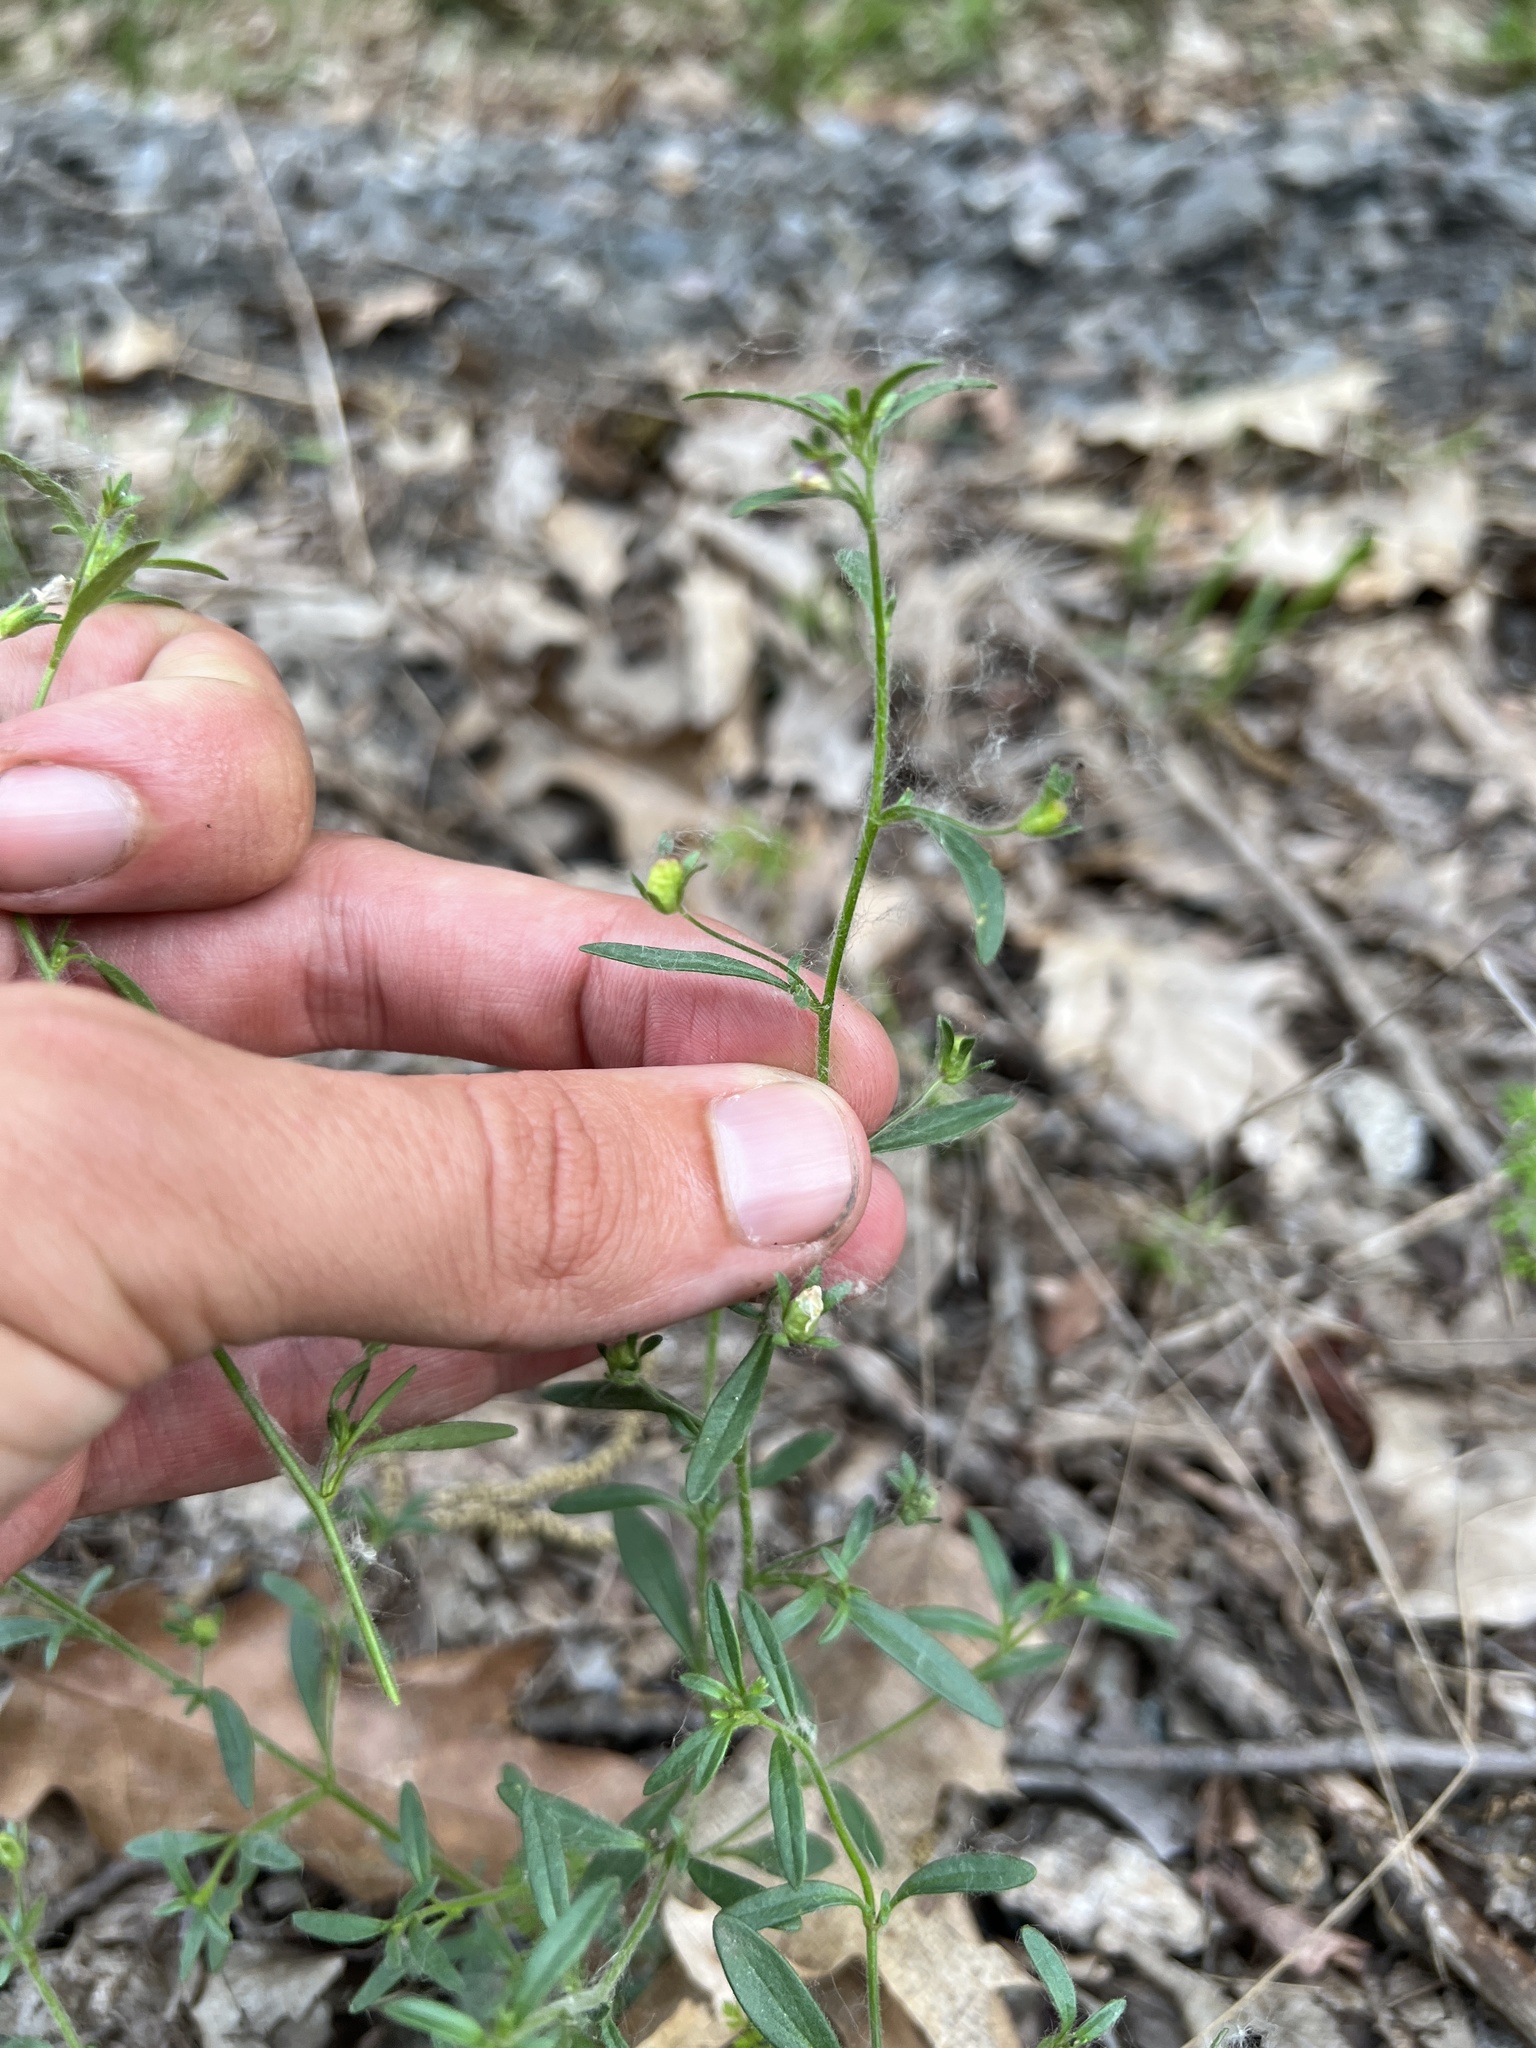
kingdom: Plantae
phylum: Tracheophyta
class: Magnoliopsida
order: Lamiales
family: Plantaginaceae
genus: Chaenorhinum
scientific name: Chaenorhinum minus
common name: Dwarf snapdragon
